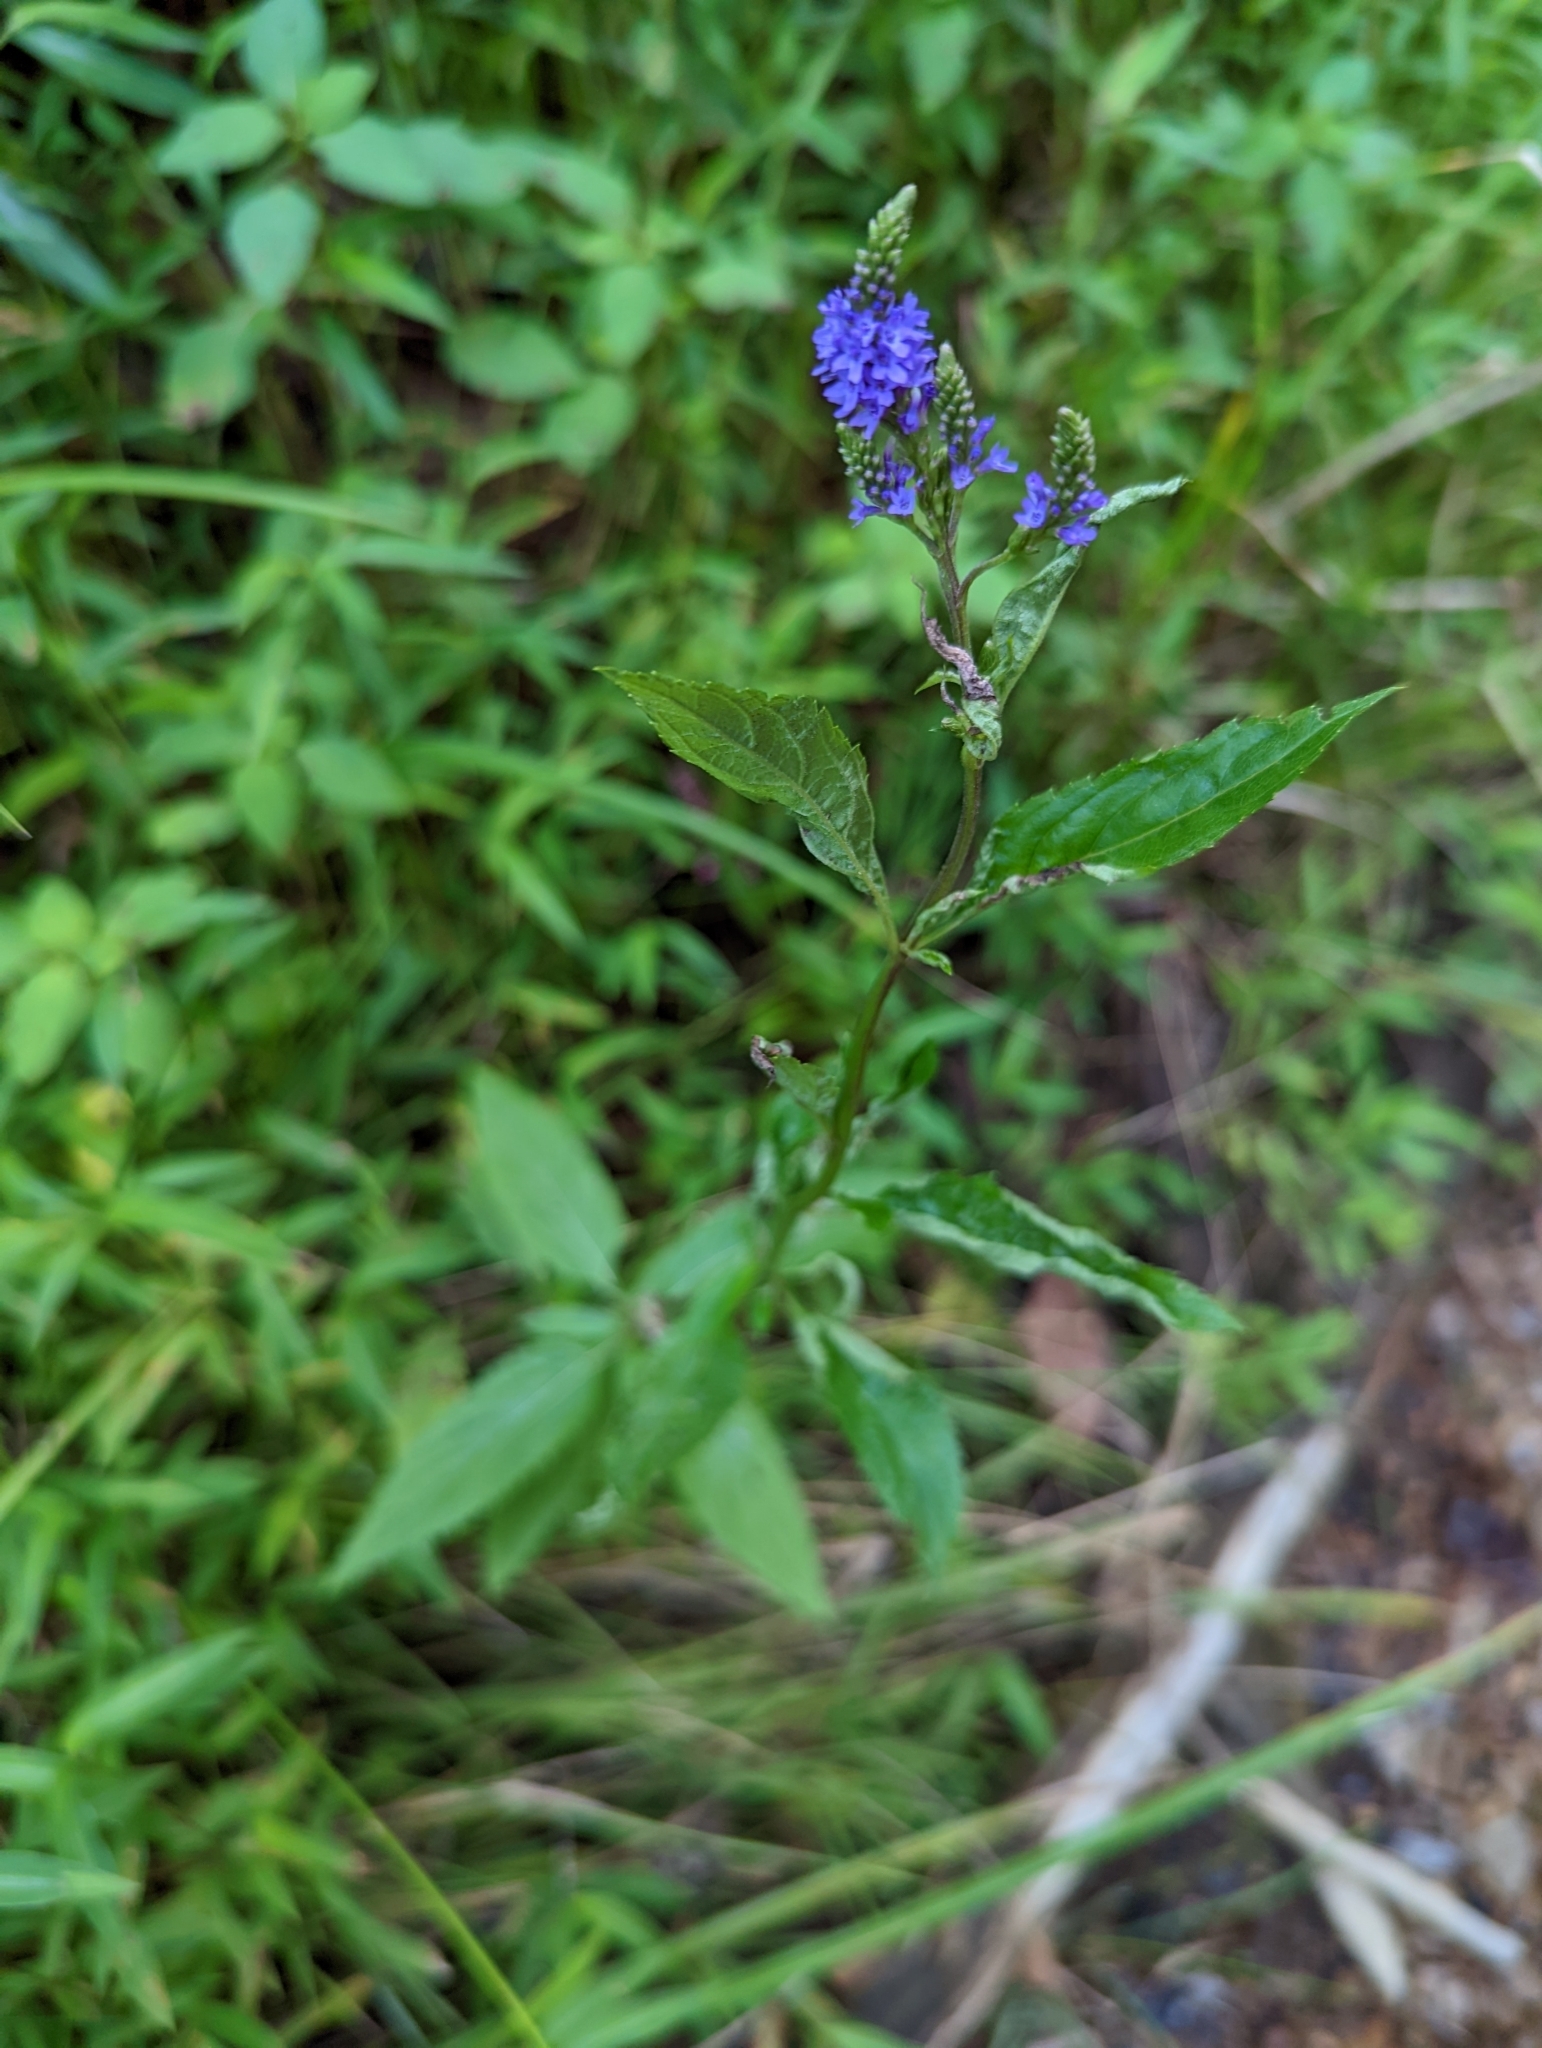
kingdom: Plantae
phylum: Tracheophyta
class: Magnoliopsida
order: Lamiales
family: Verbenaceae
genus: Verbena
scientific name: Verbena hastata
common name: American blue vervain
